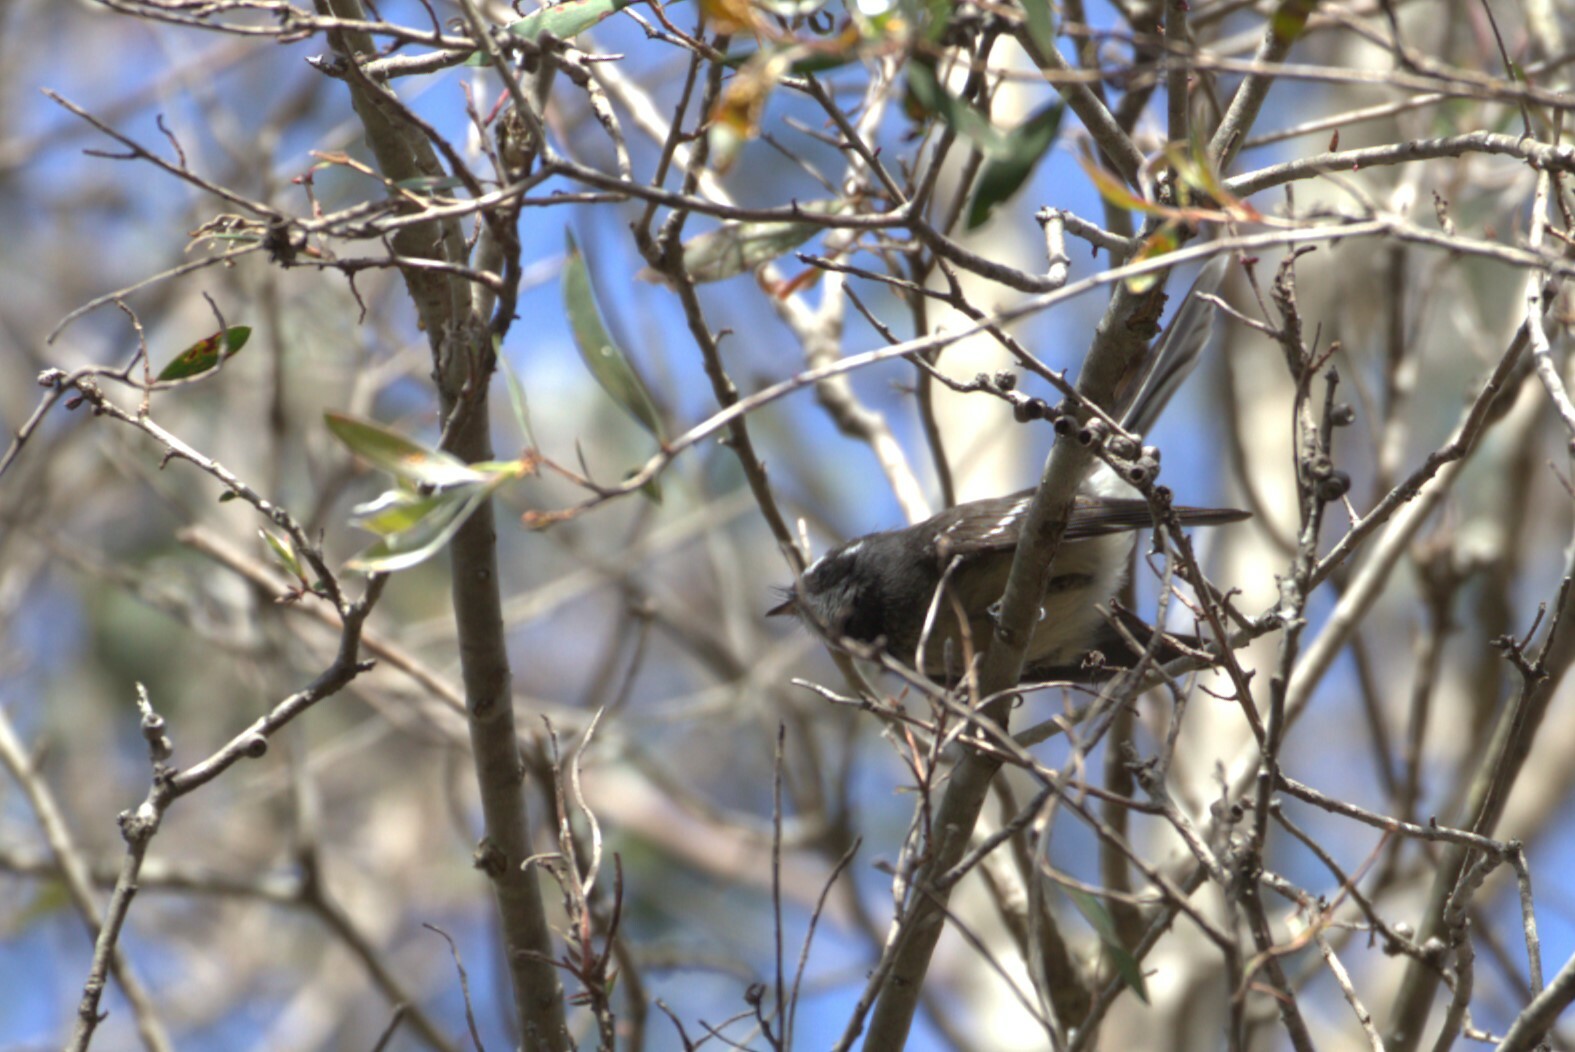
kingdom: Animalia
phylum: Chordata
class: Aves
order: Passeriformes
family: Rhipiduridae
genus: Rhipidura
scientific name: Rhipidura albiscapa
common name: Grey fantail
